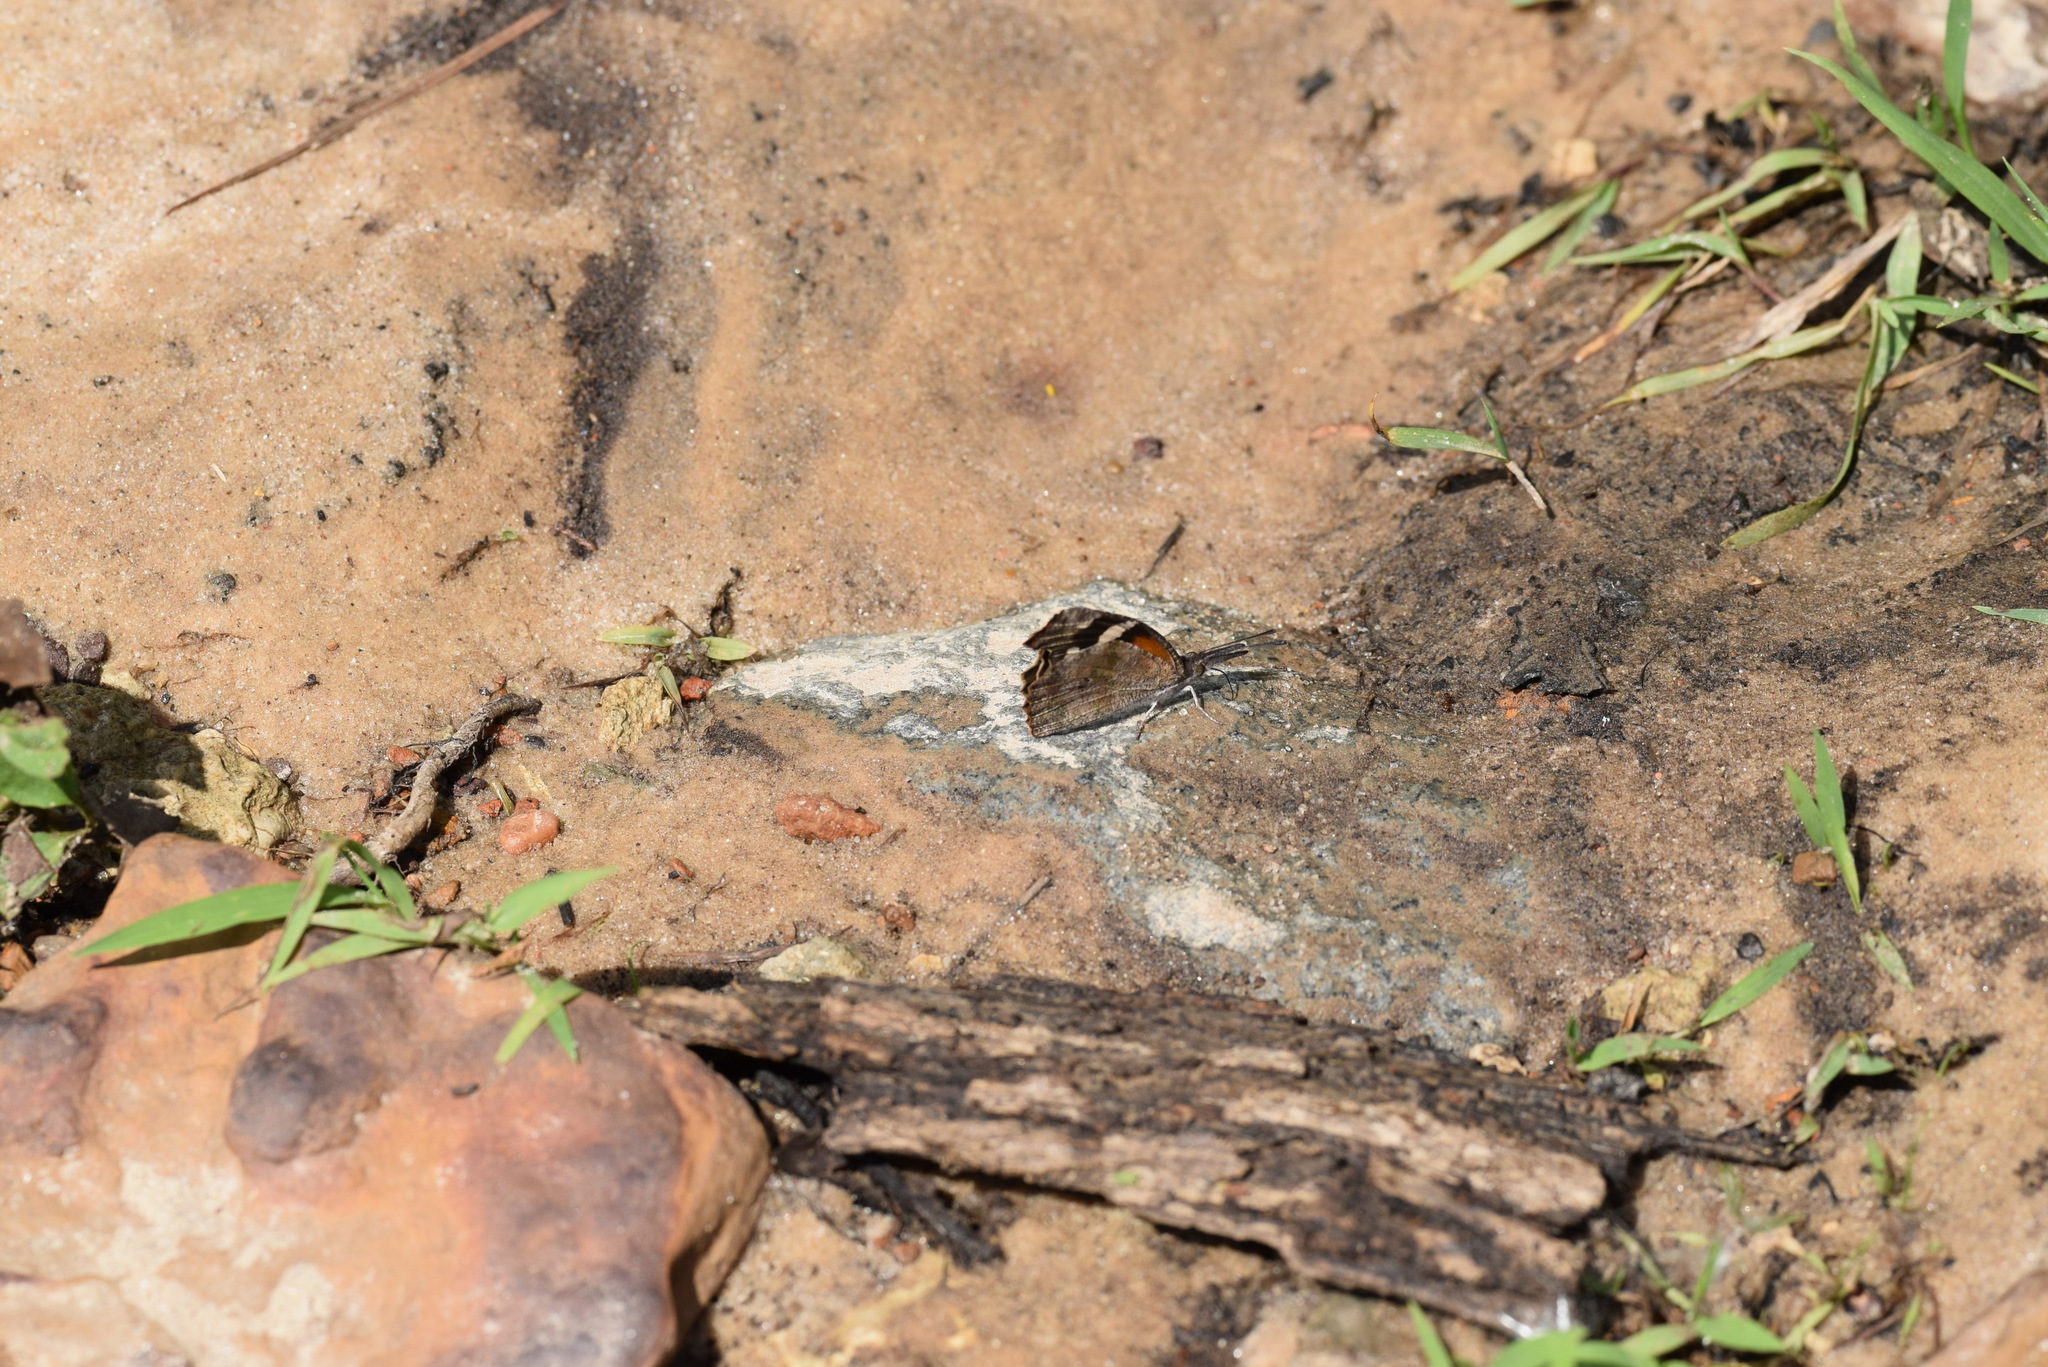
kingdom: Animalia
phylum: Arthropoda
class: Insecta
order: Lepidoptera
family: Nymphalidae
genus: Libytheana
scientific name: Libytheana carinenta
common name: American snout
